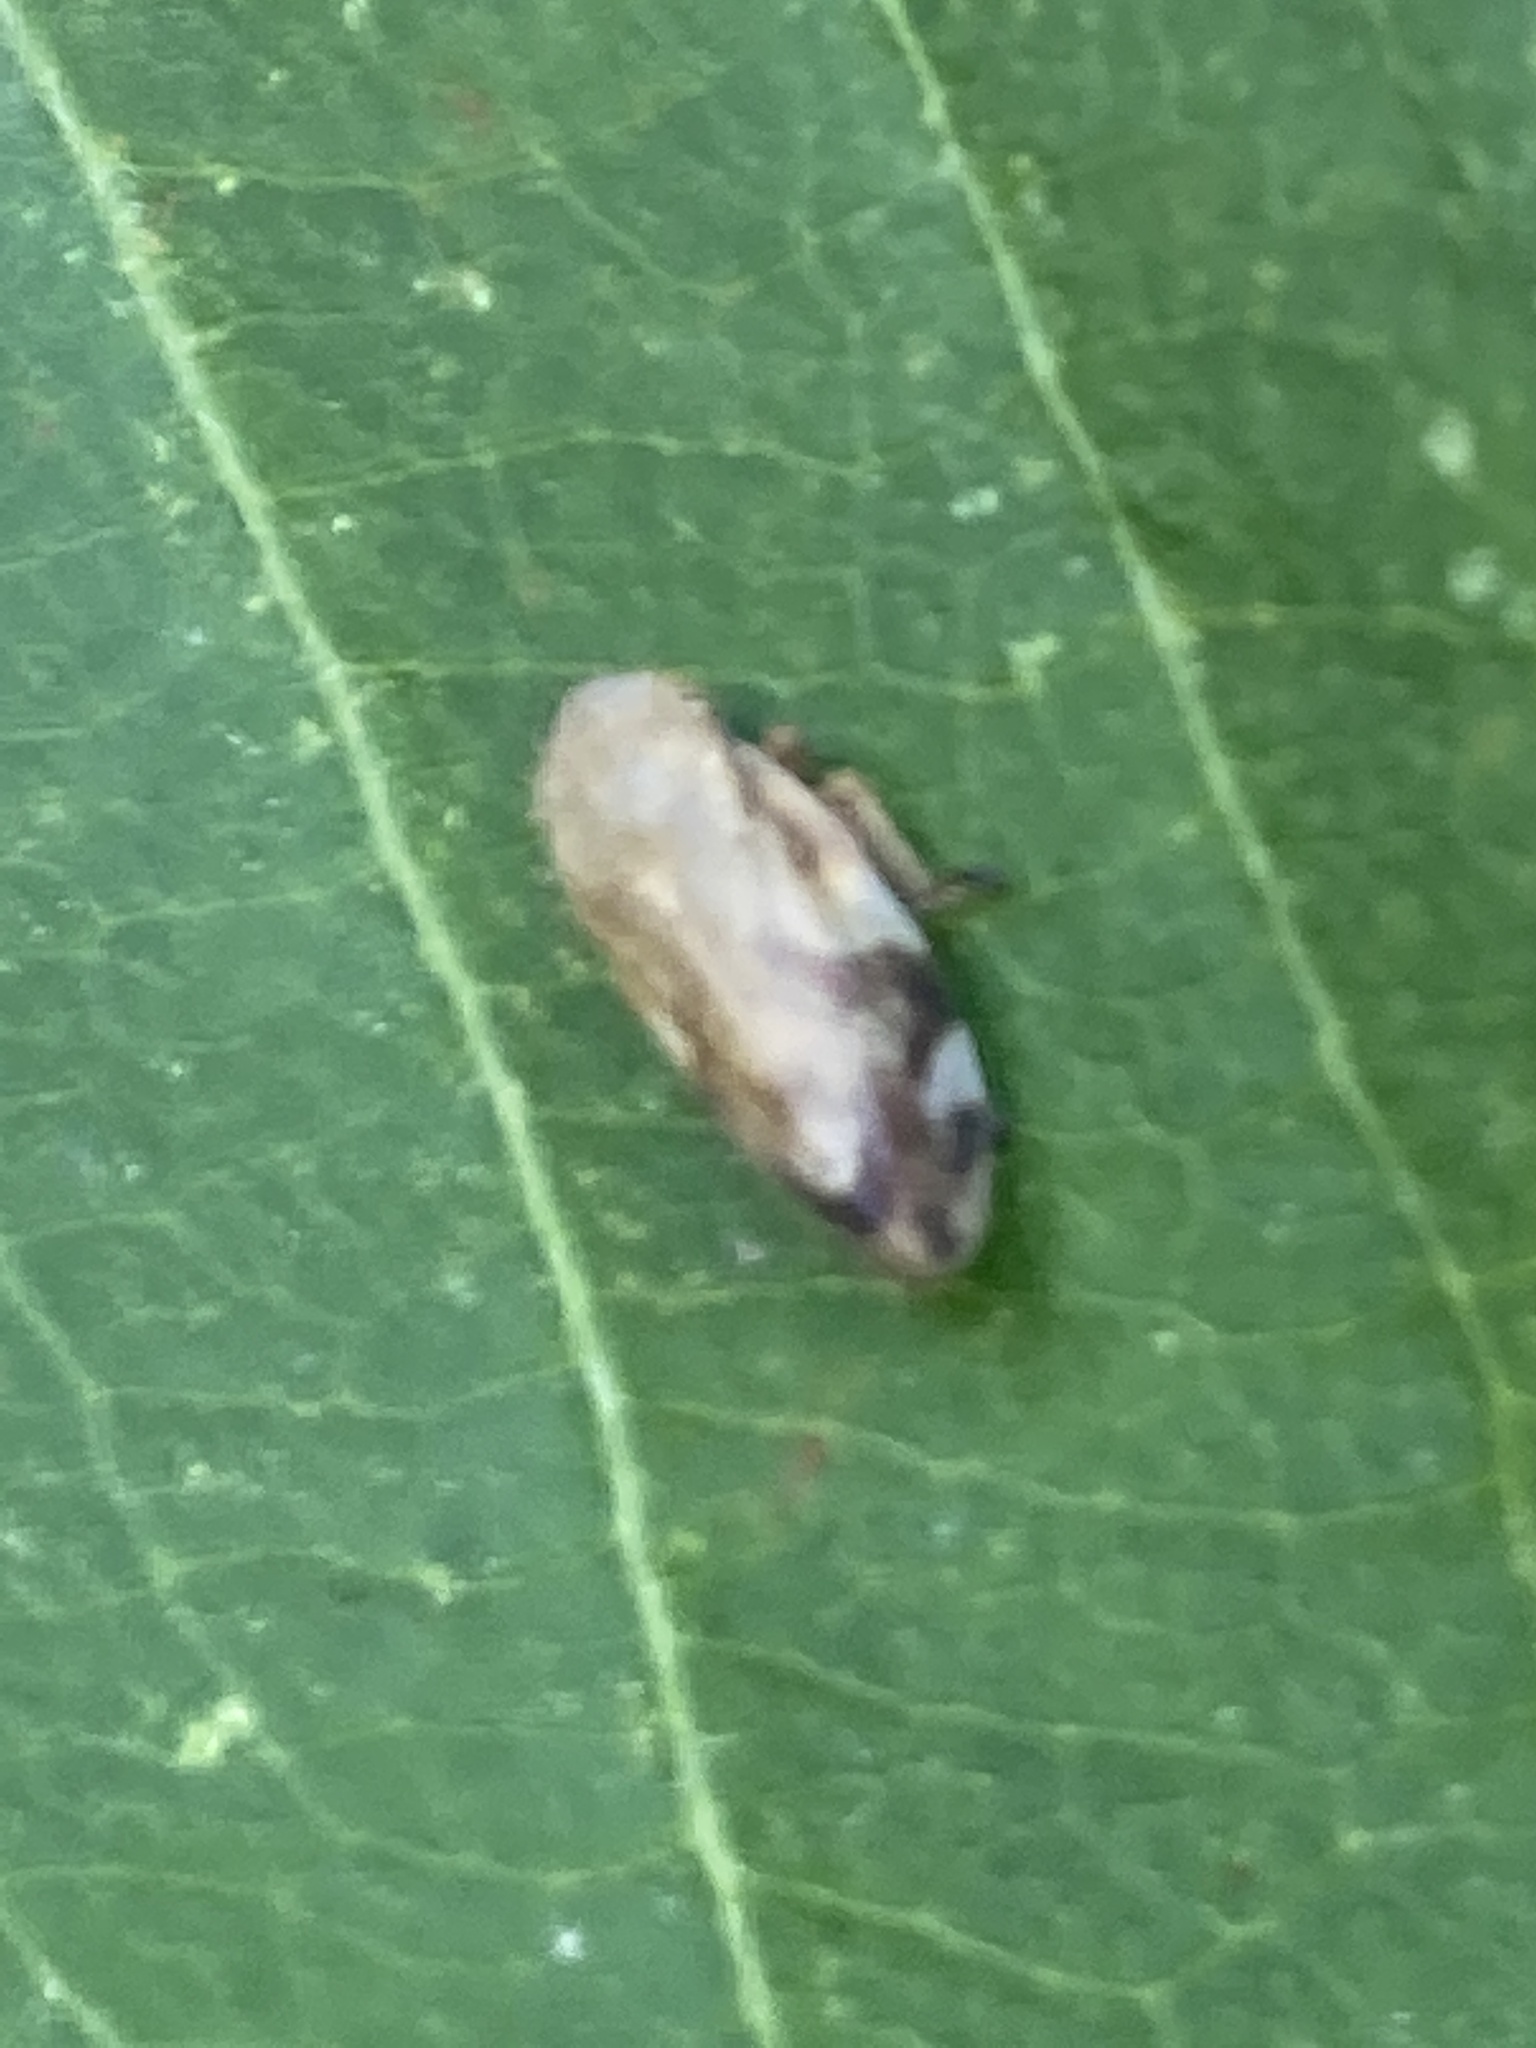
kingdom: Animalia
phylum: Arthropoda
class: Insecta
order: Hemiptera
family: Aphrophoridae
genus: Philaenus
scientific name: Philaenus spumarius
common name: Meadow spittlebug
